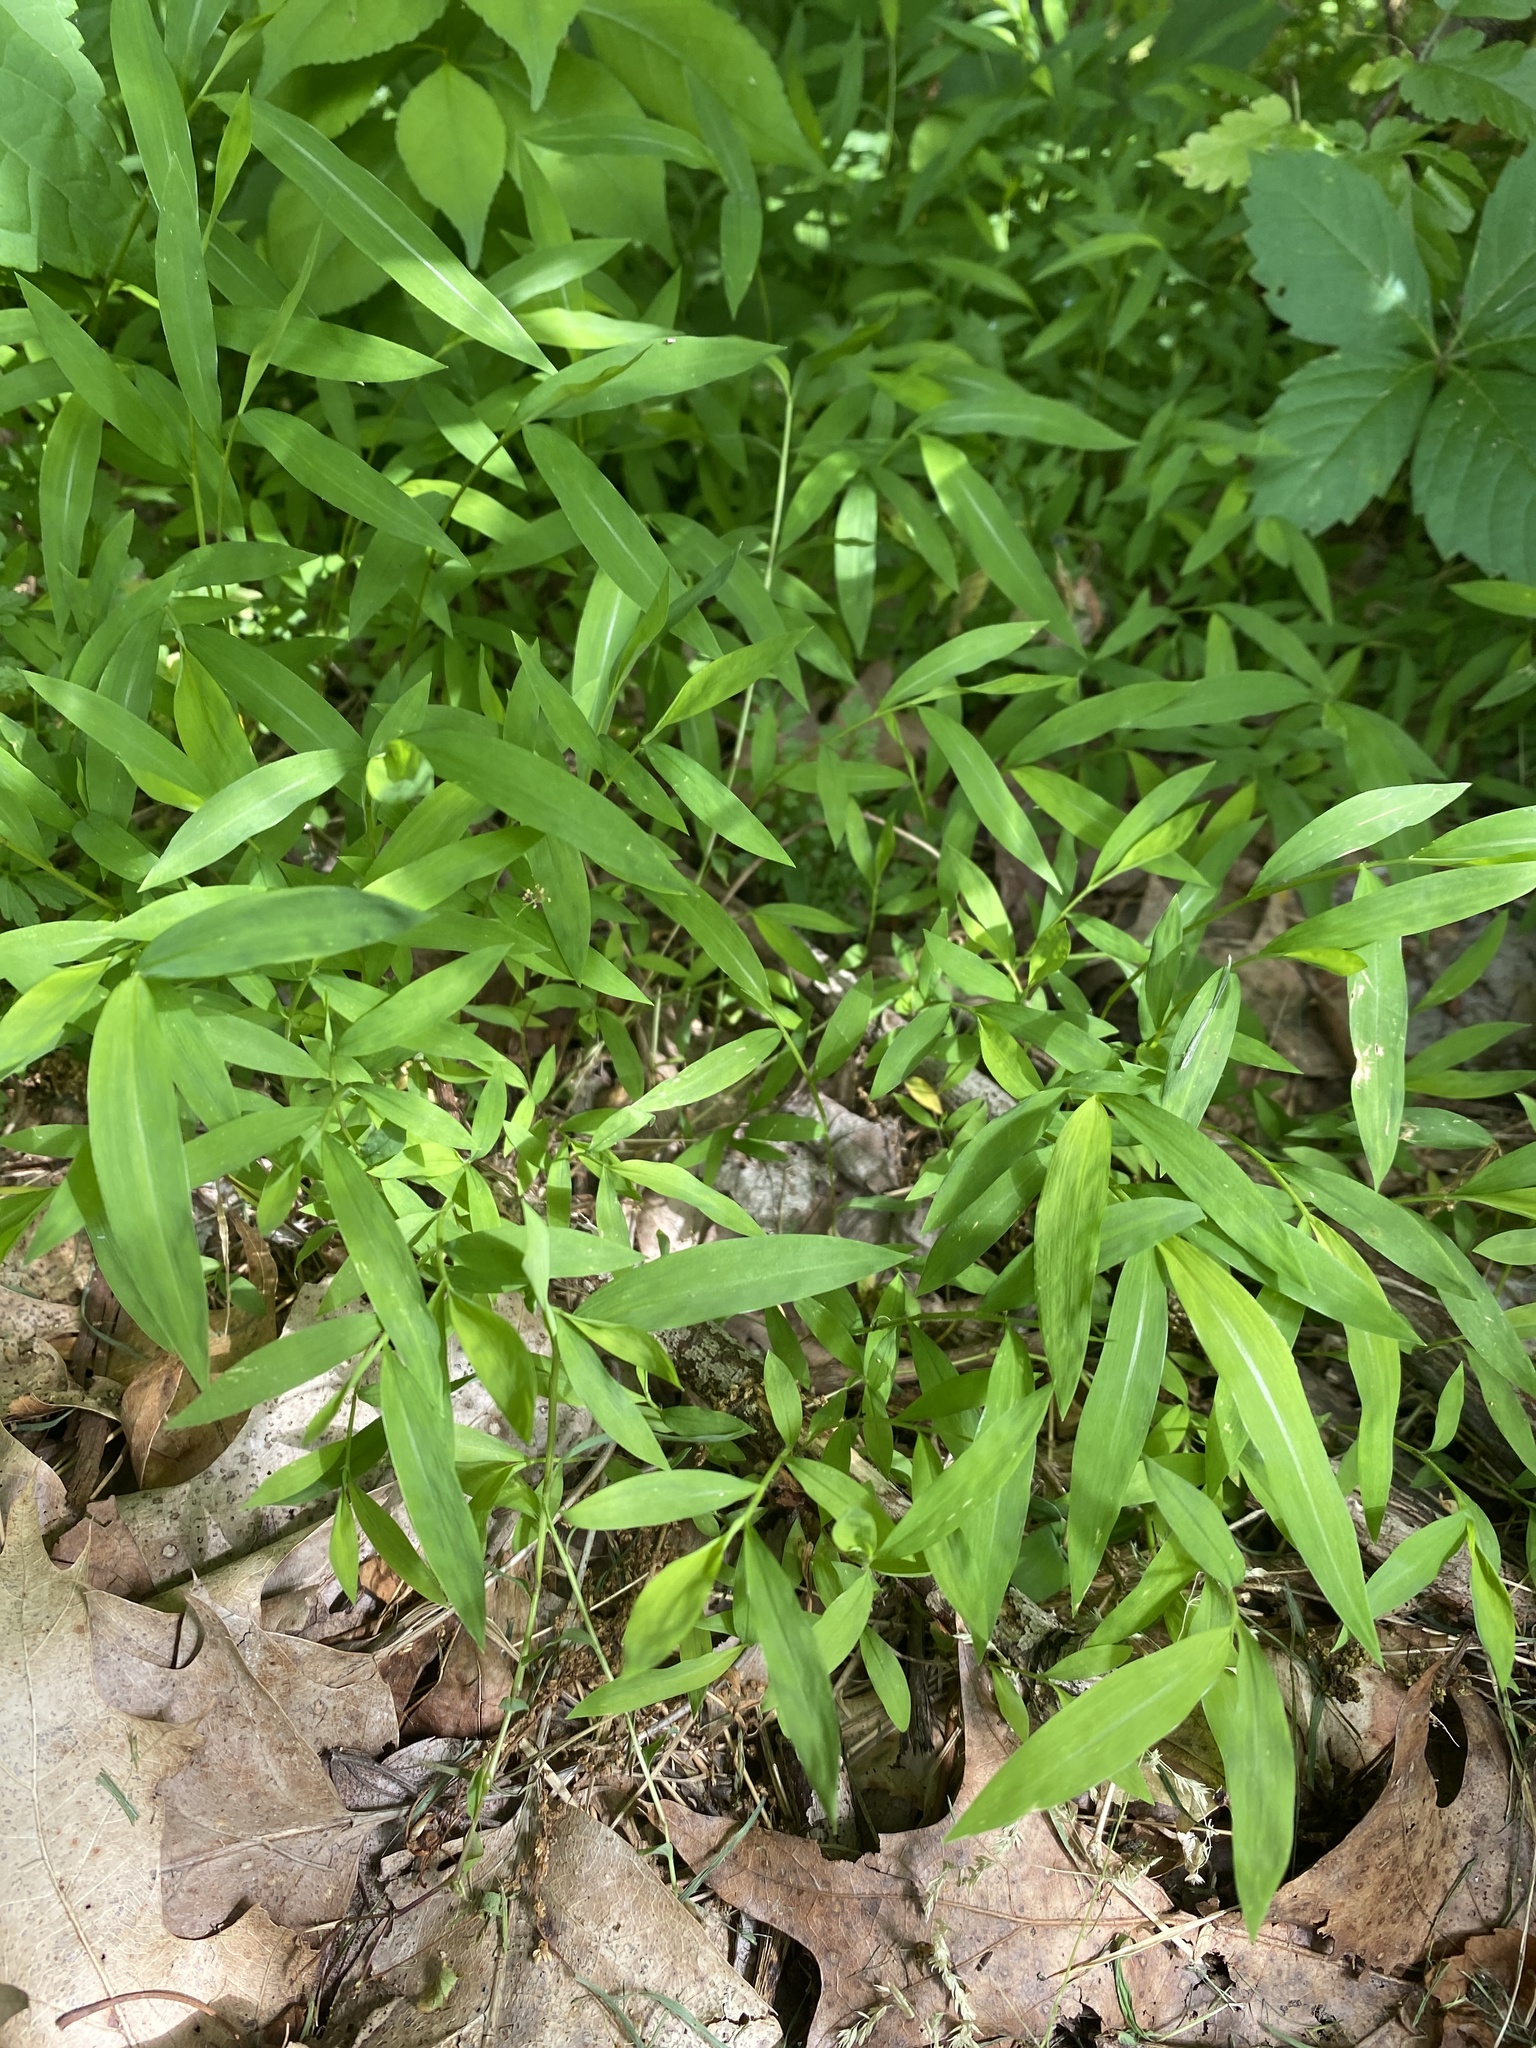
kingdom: Plantae
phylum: Tracheophyta
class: Liliopsida
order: Poales
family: Poaceae
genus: Microstegium
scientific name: Microstegium vimineum
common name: Japanese stiltgrass
